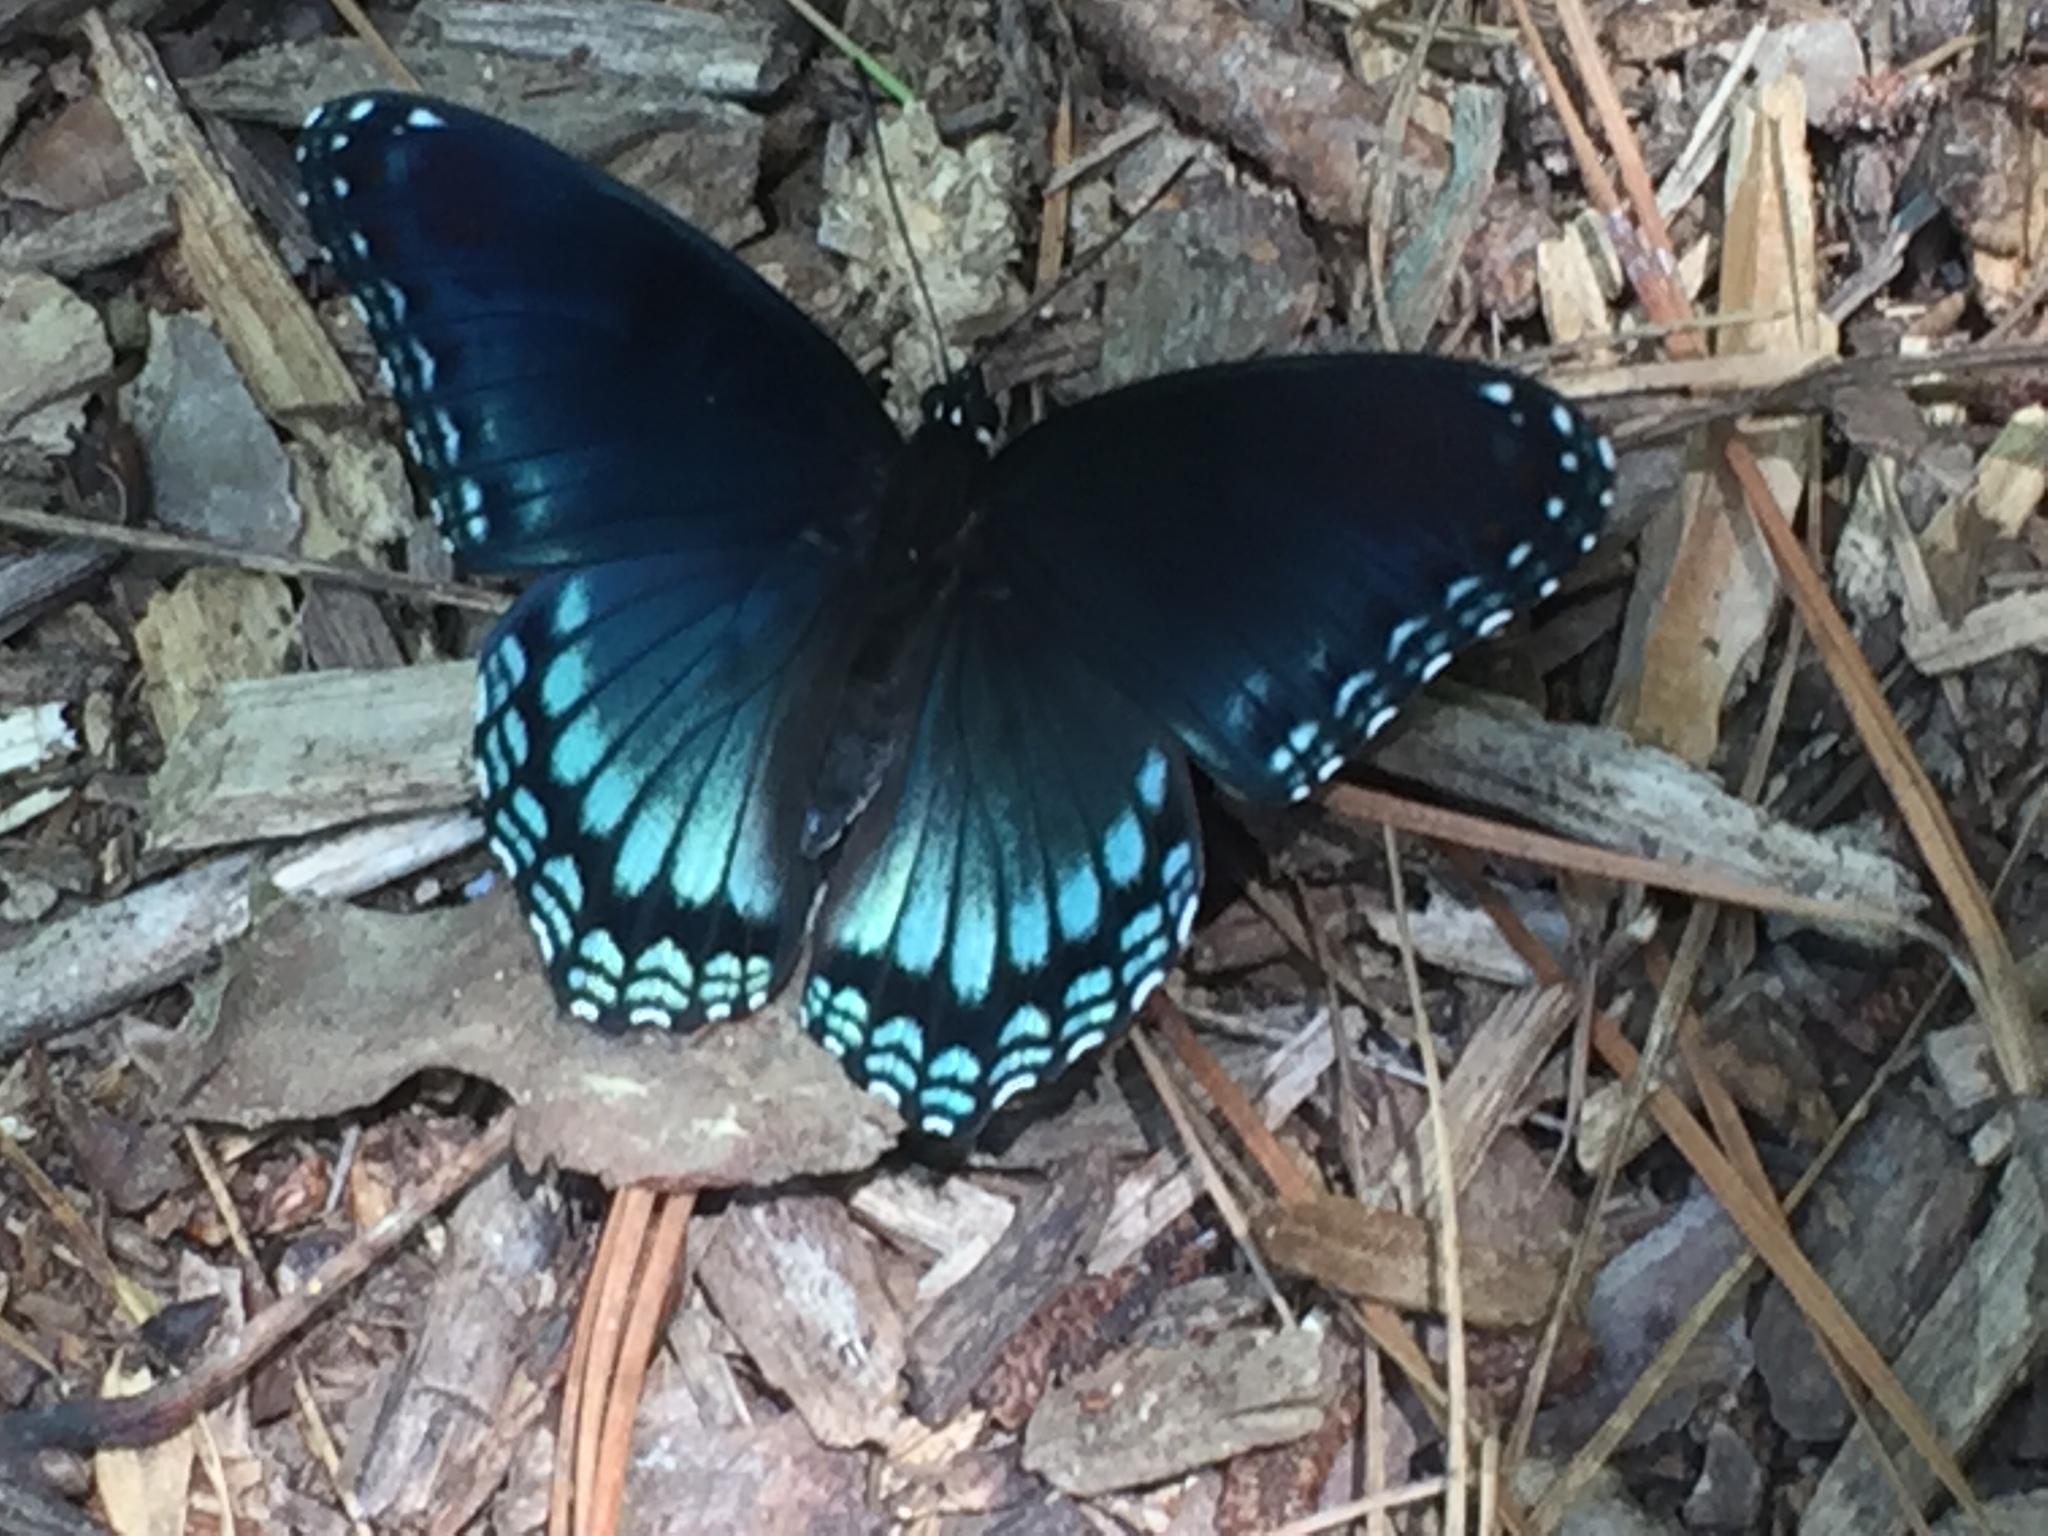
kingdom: Animalia
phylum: Arthropoda
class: Insecta
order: Lepidoptera
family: Nymphalidae
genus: Limenitis
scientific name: Limenitis astyanax
